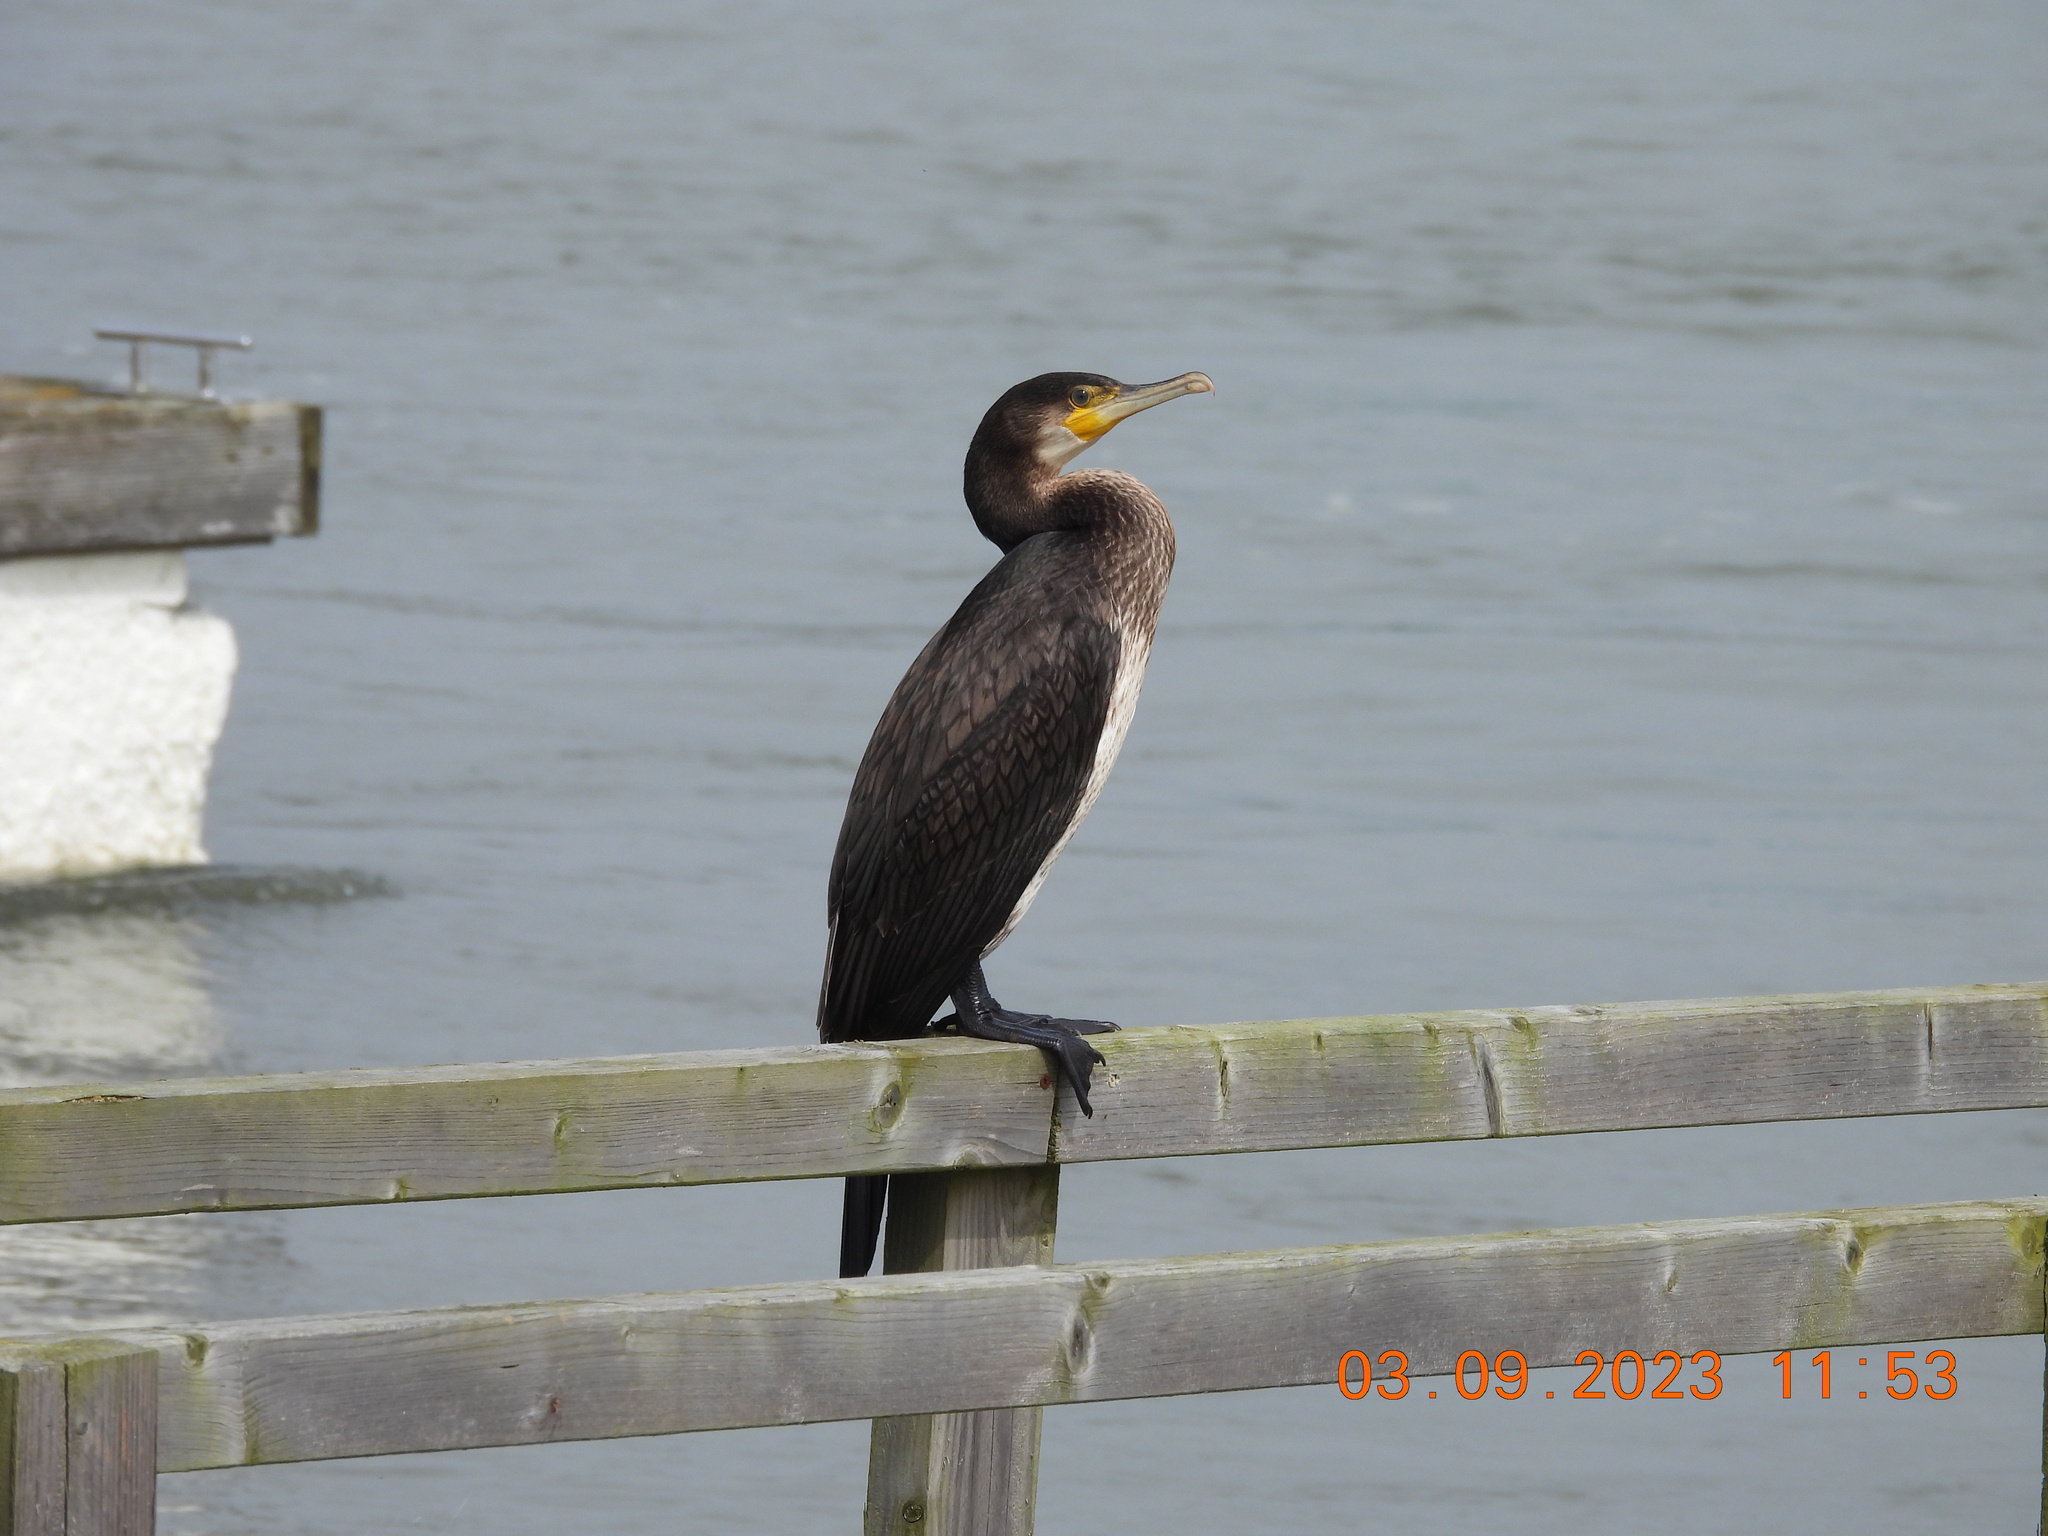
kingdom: Animalia
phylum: Chordata
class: Aves
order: Suliformes
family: Phalacrocoracidae
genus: Phalacrocorax
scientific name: Phalacrocorax carbo
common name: Great cormorant
